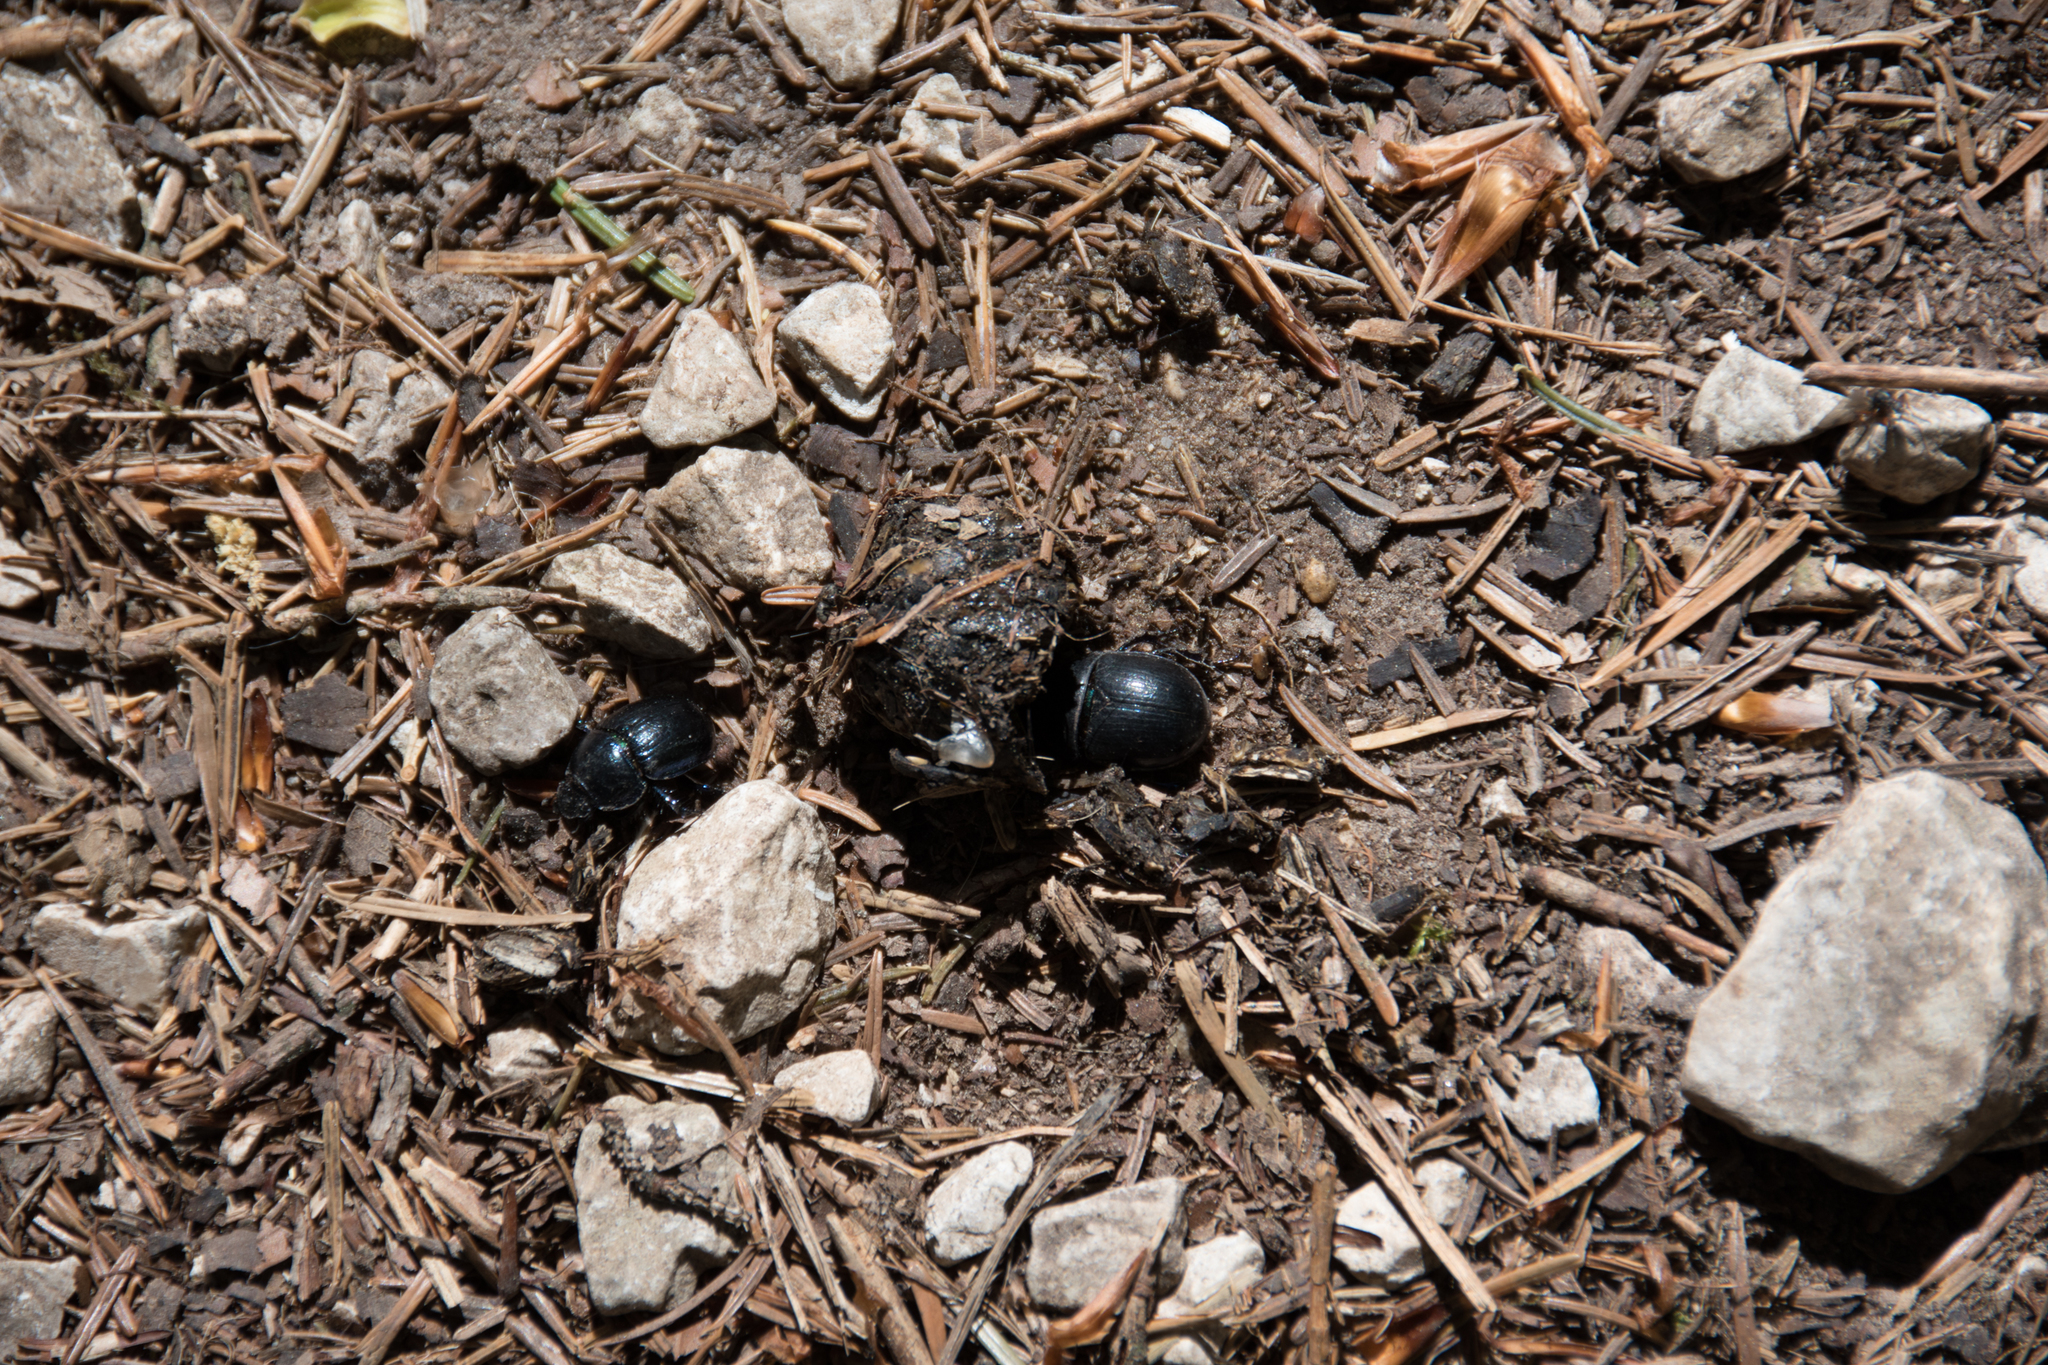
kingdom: Animalia
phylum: Arthropoda
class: Insecta
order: Coleoptera
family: Geotrupidae
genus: Anoplotrupes
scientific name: Anoplotrupes stercorosus
